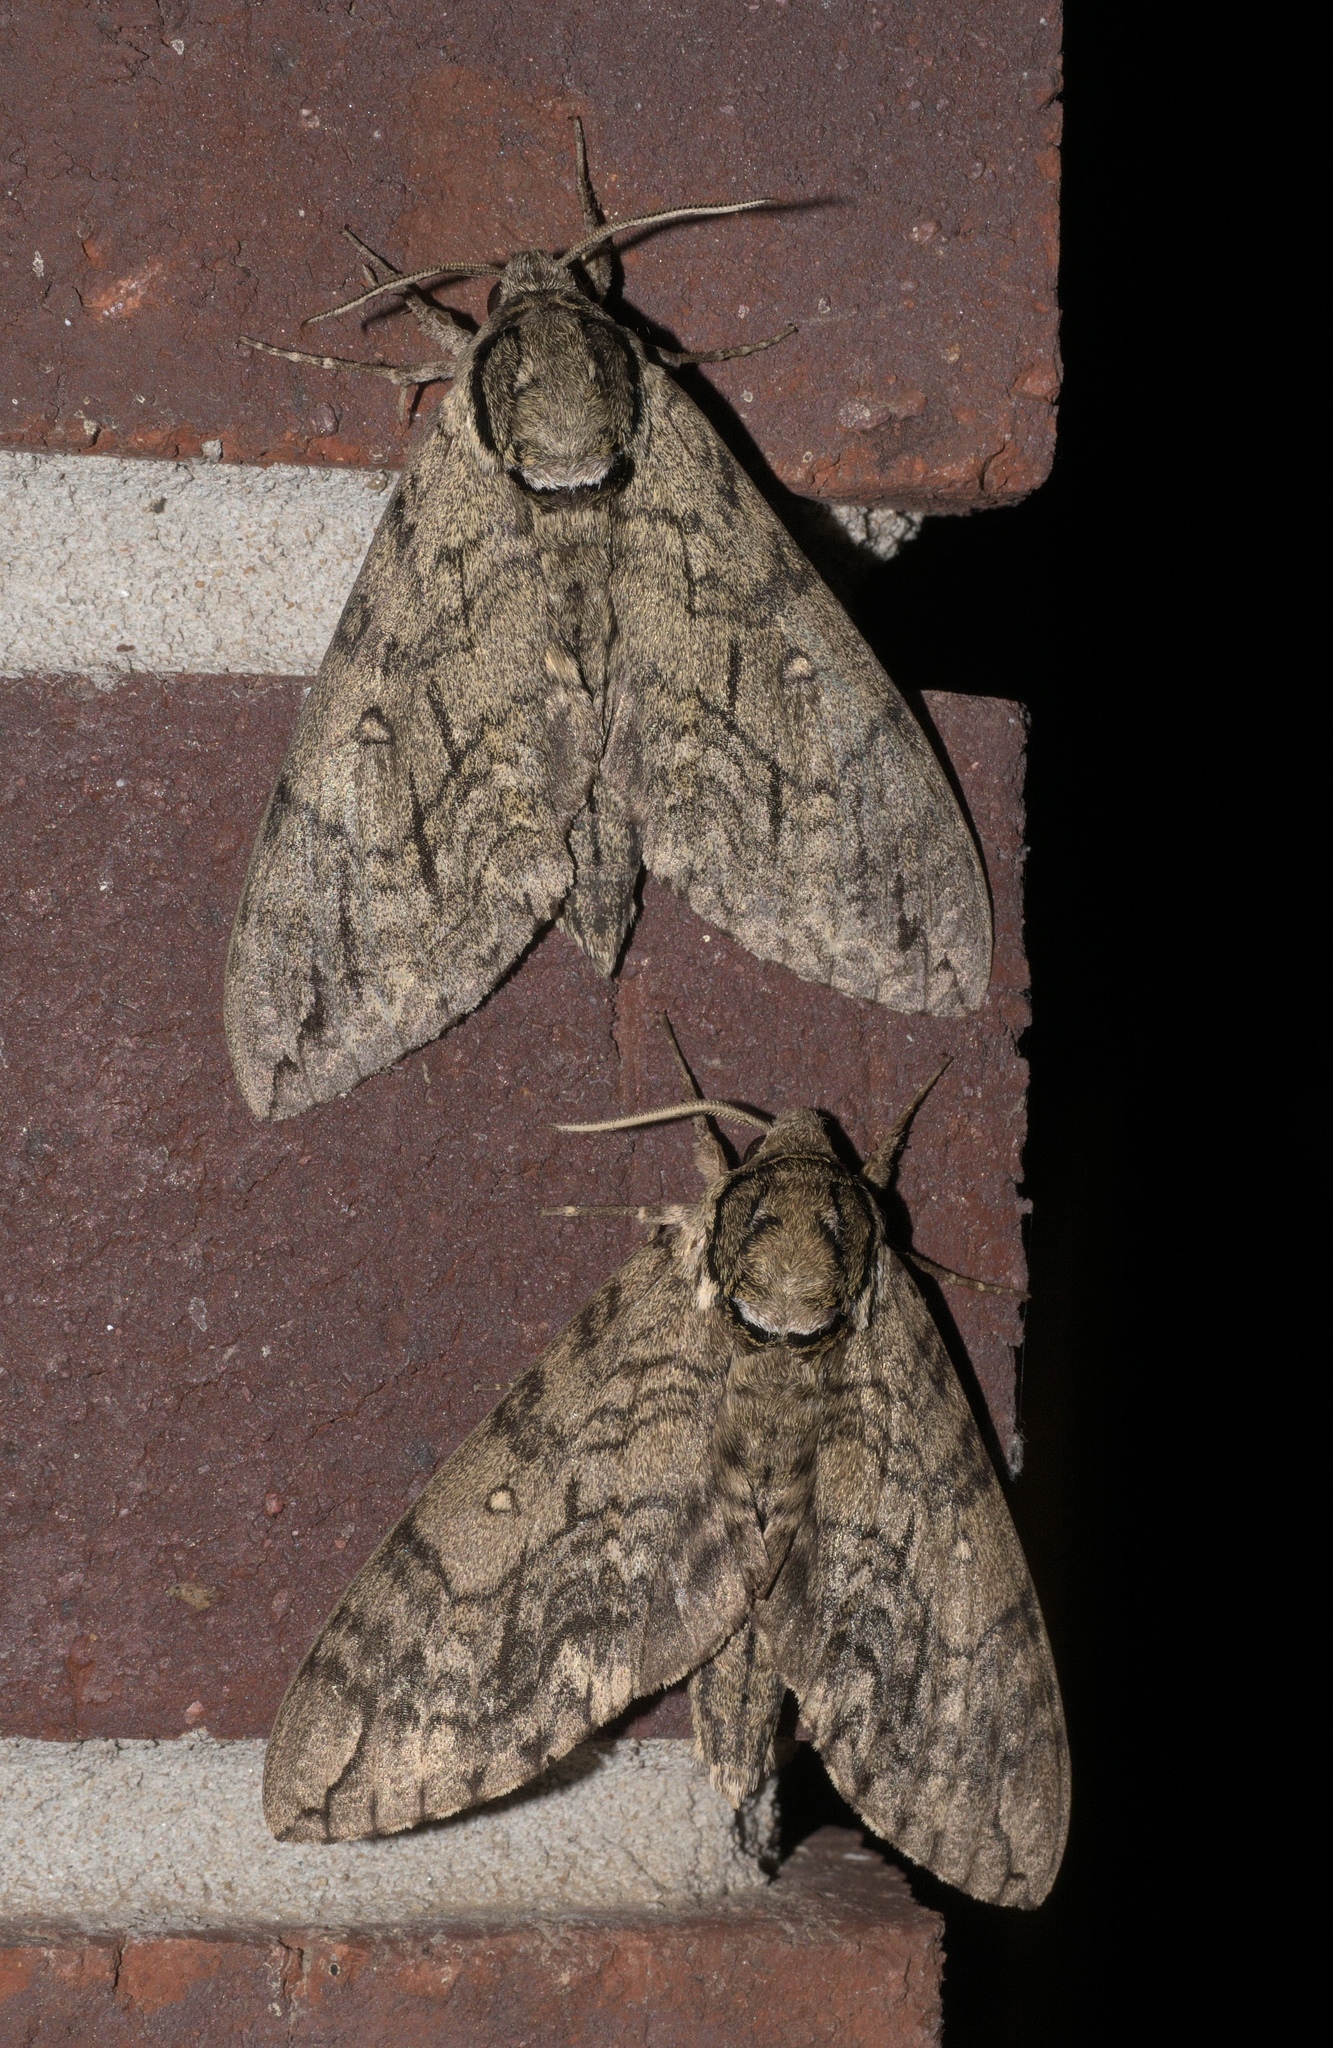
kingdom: Animalia
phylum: Arthropoda
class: Insecta
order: Lepidoptera
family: Sphingidae
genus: Ceratomia
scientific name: Ceratomia undulosa
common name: Waved sphinx
